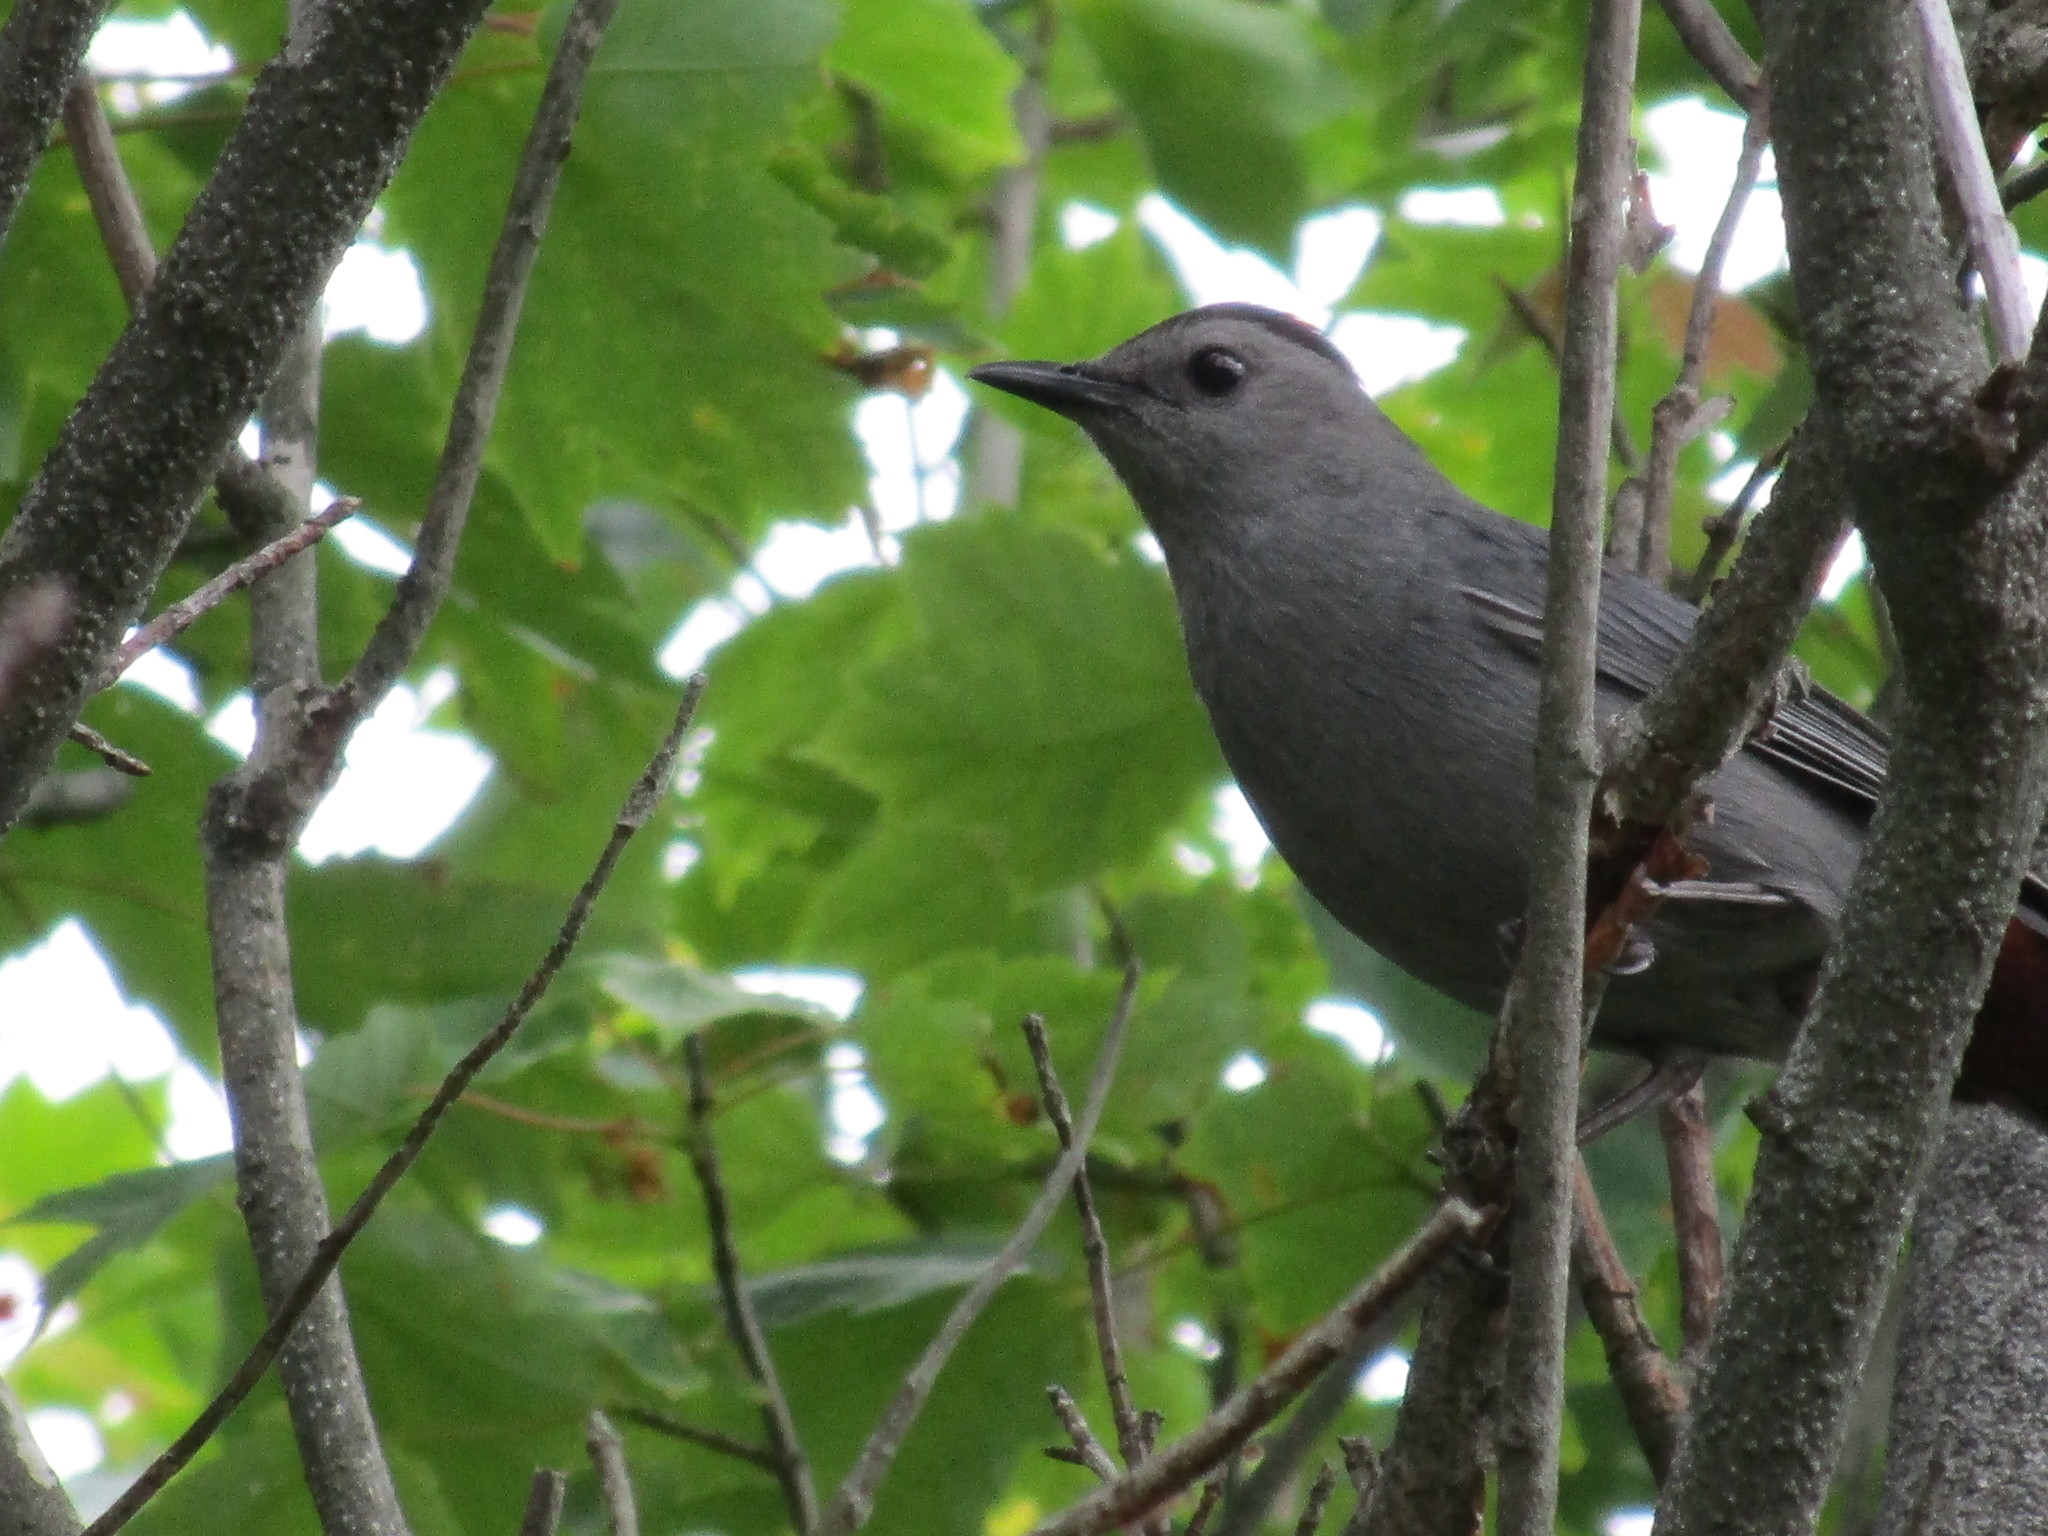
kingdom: Animalia
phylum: Chordata
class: Aves
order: Passeriformes
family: Mimidae
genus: Dumetella
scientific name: Dumetella carolinensis
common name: Gray catbird
